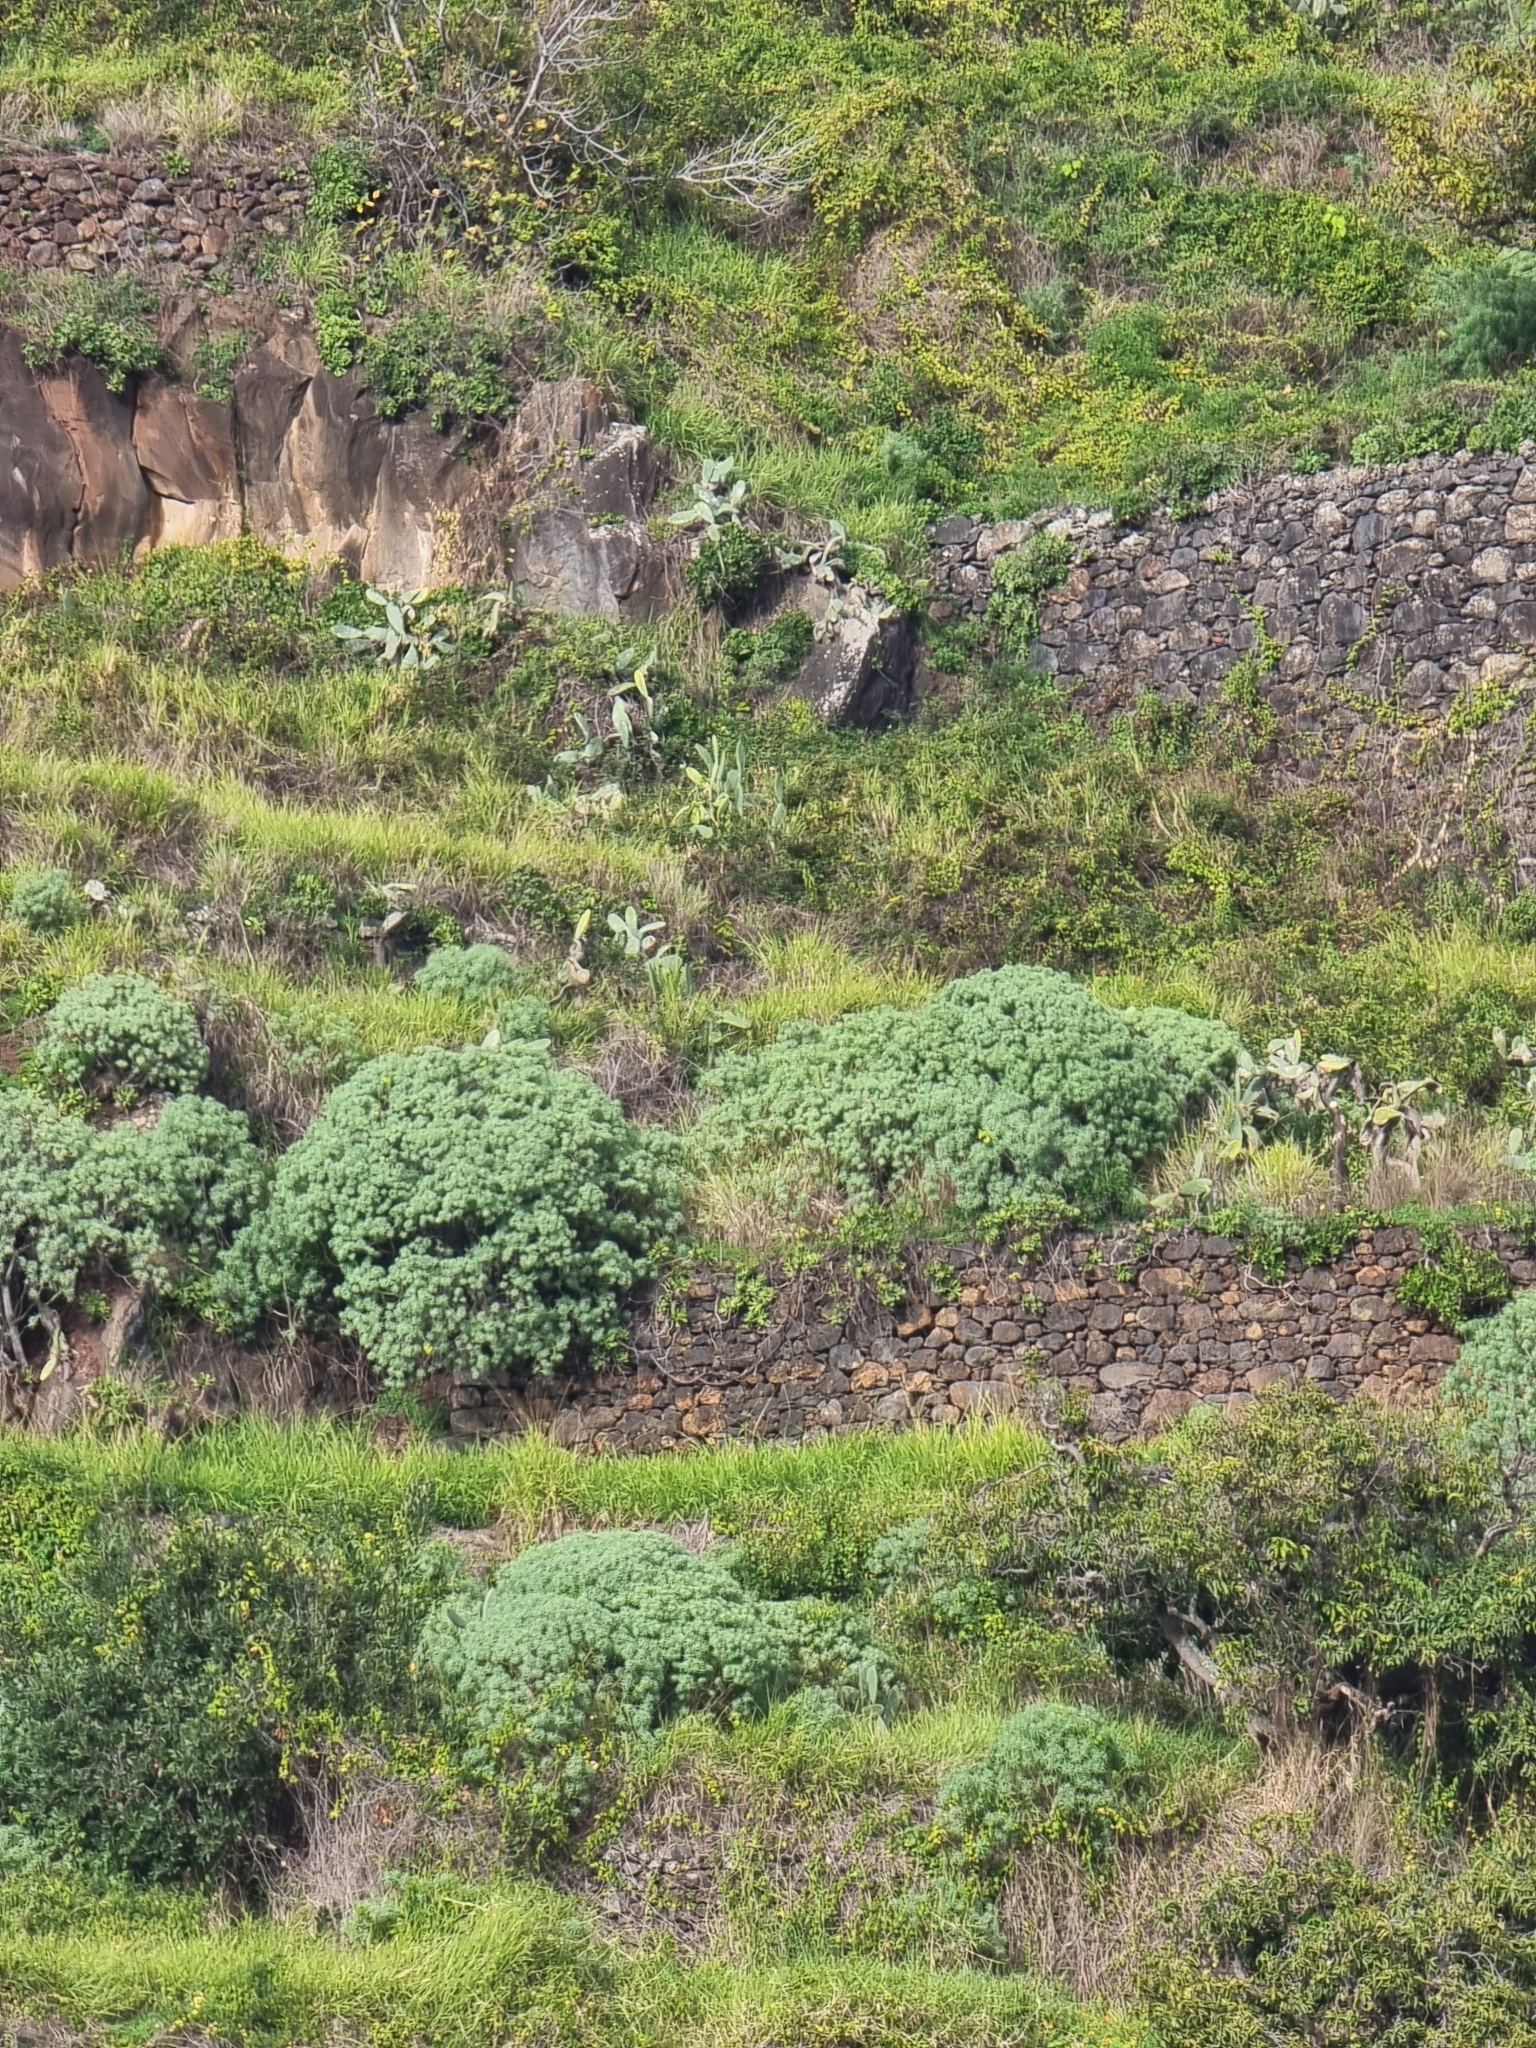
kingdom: Plantae
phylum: Tracheophyta
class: Magnoliopsida
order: Malpighiales
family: Euphorbiaceae
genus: Euphorbia
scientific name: Euphorbia piscatoria
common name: Fish-stunning spurge
